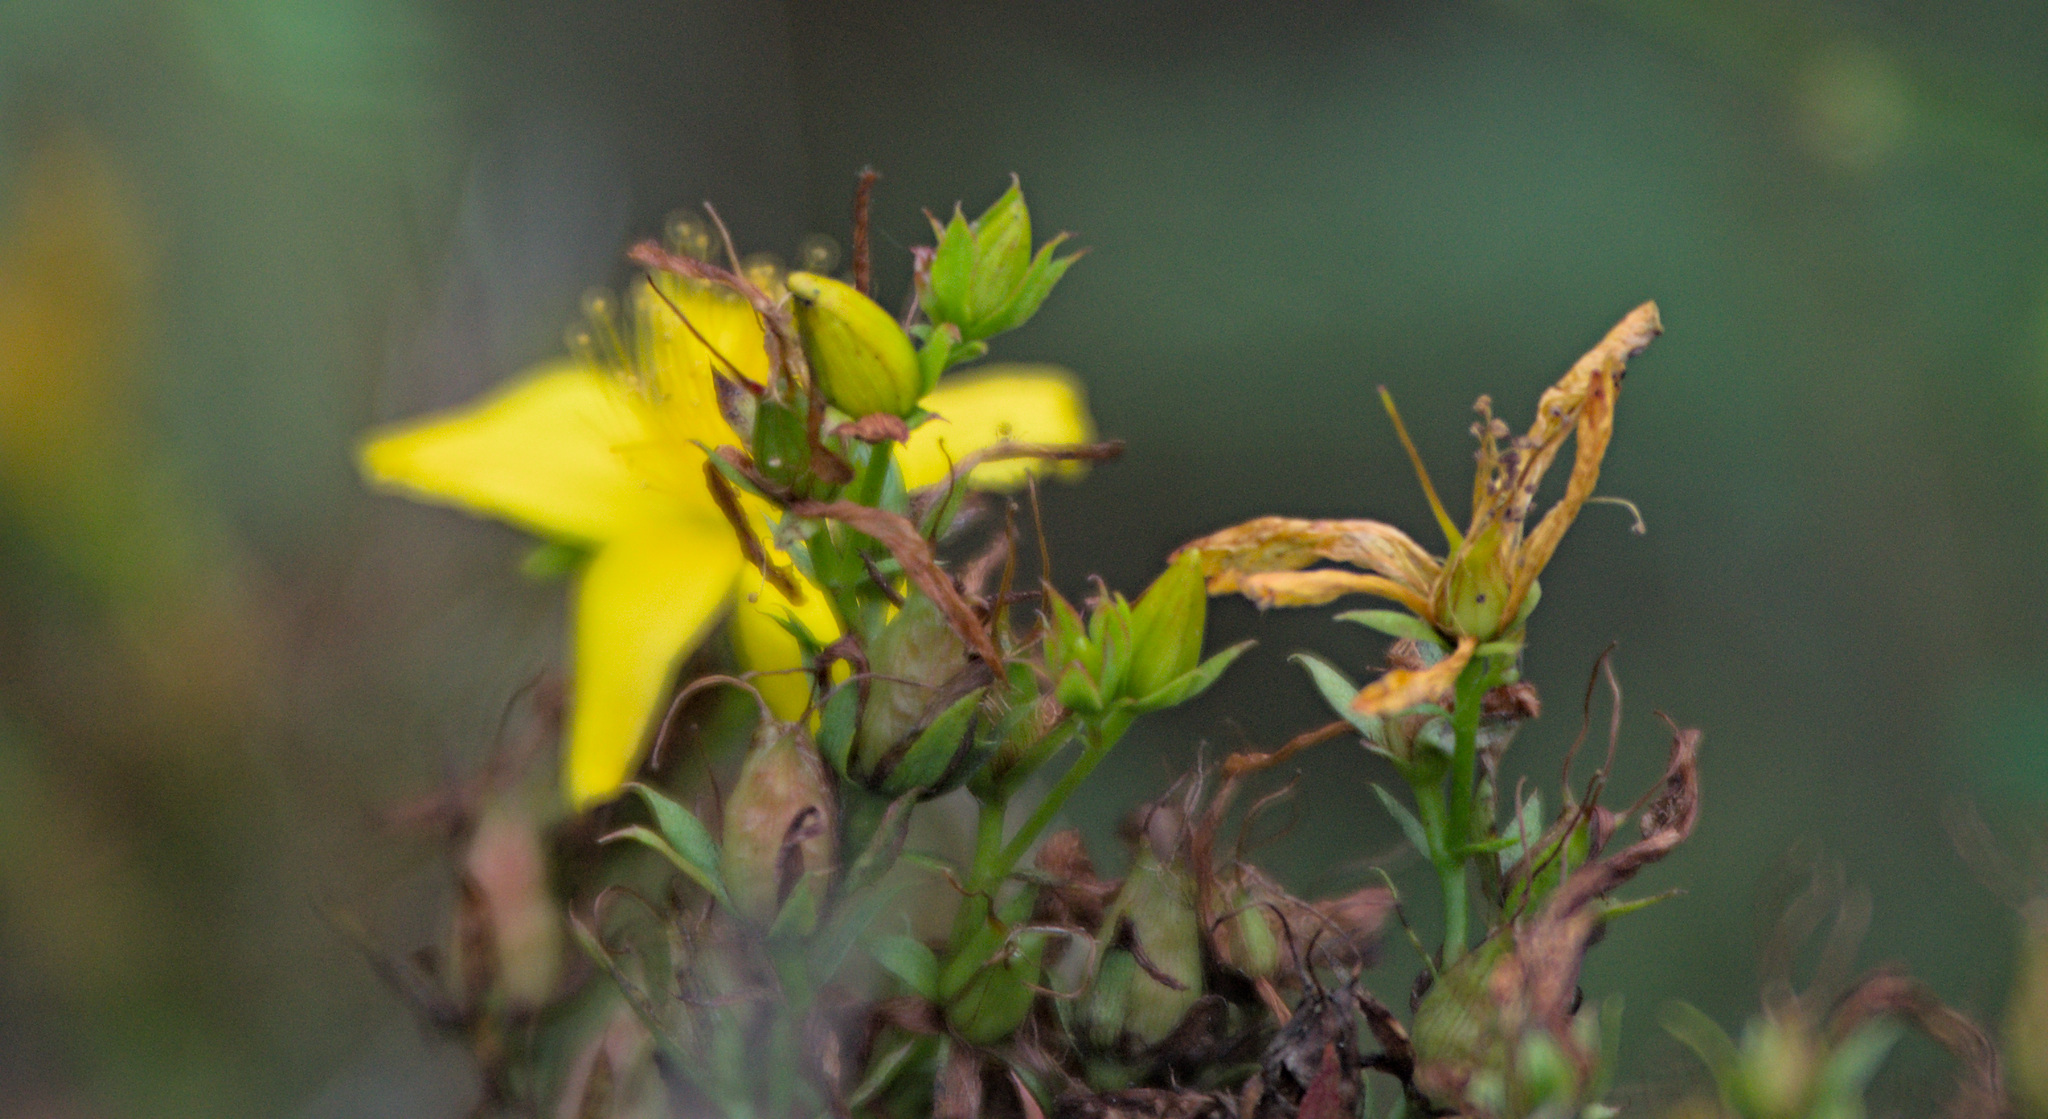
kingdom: Plantae
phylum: Tracheophyta
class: Magnoliopsida
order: Malpighiales
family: Hypericaceae
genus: Hypericum
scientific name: Hypericum perforatum
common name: Common st. johnswort
